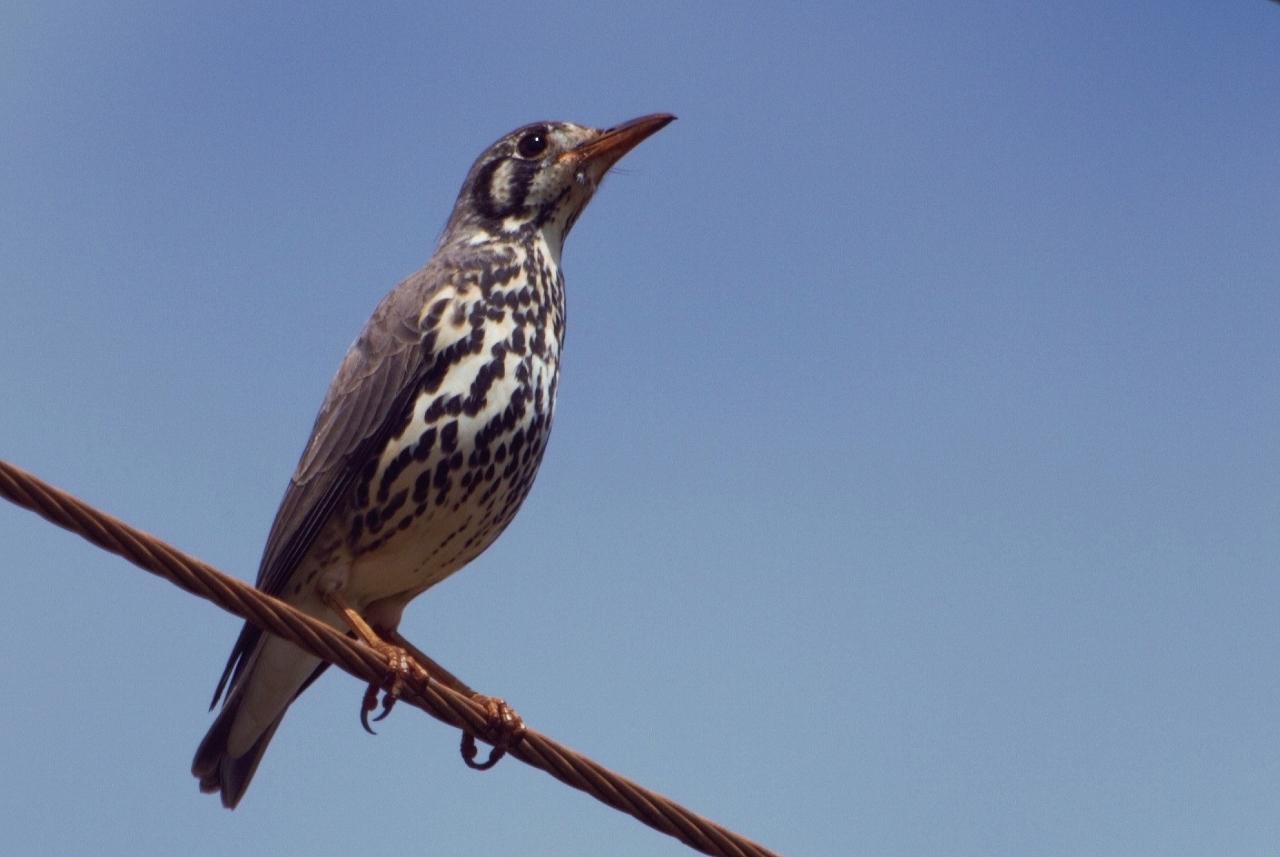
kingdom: Animalia
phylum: Chordata
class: Aves
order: Passeriformes
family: Turdidae
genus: Psophocichla
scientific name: Psophocichla litsitsirupa
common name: Groundscraper thrush
